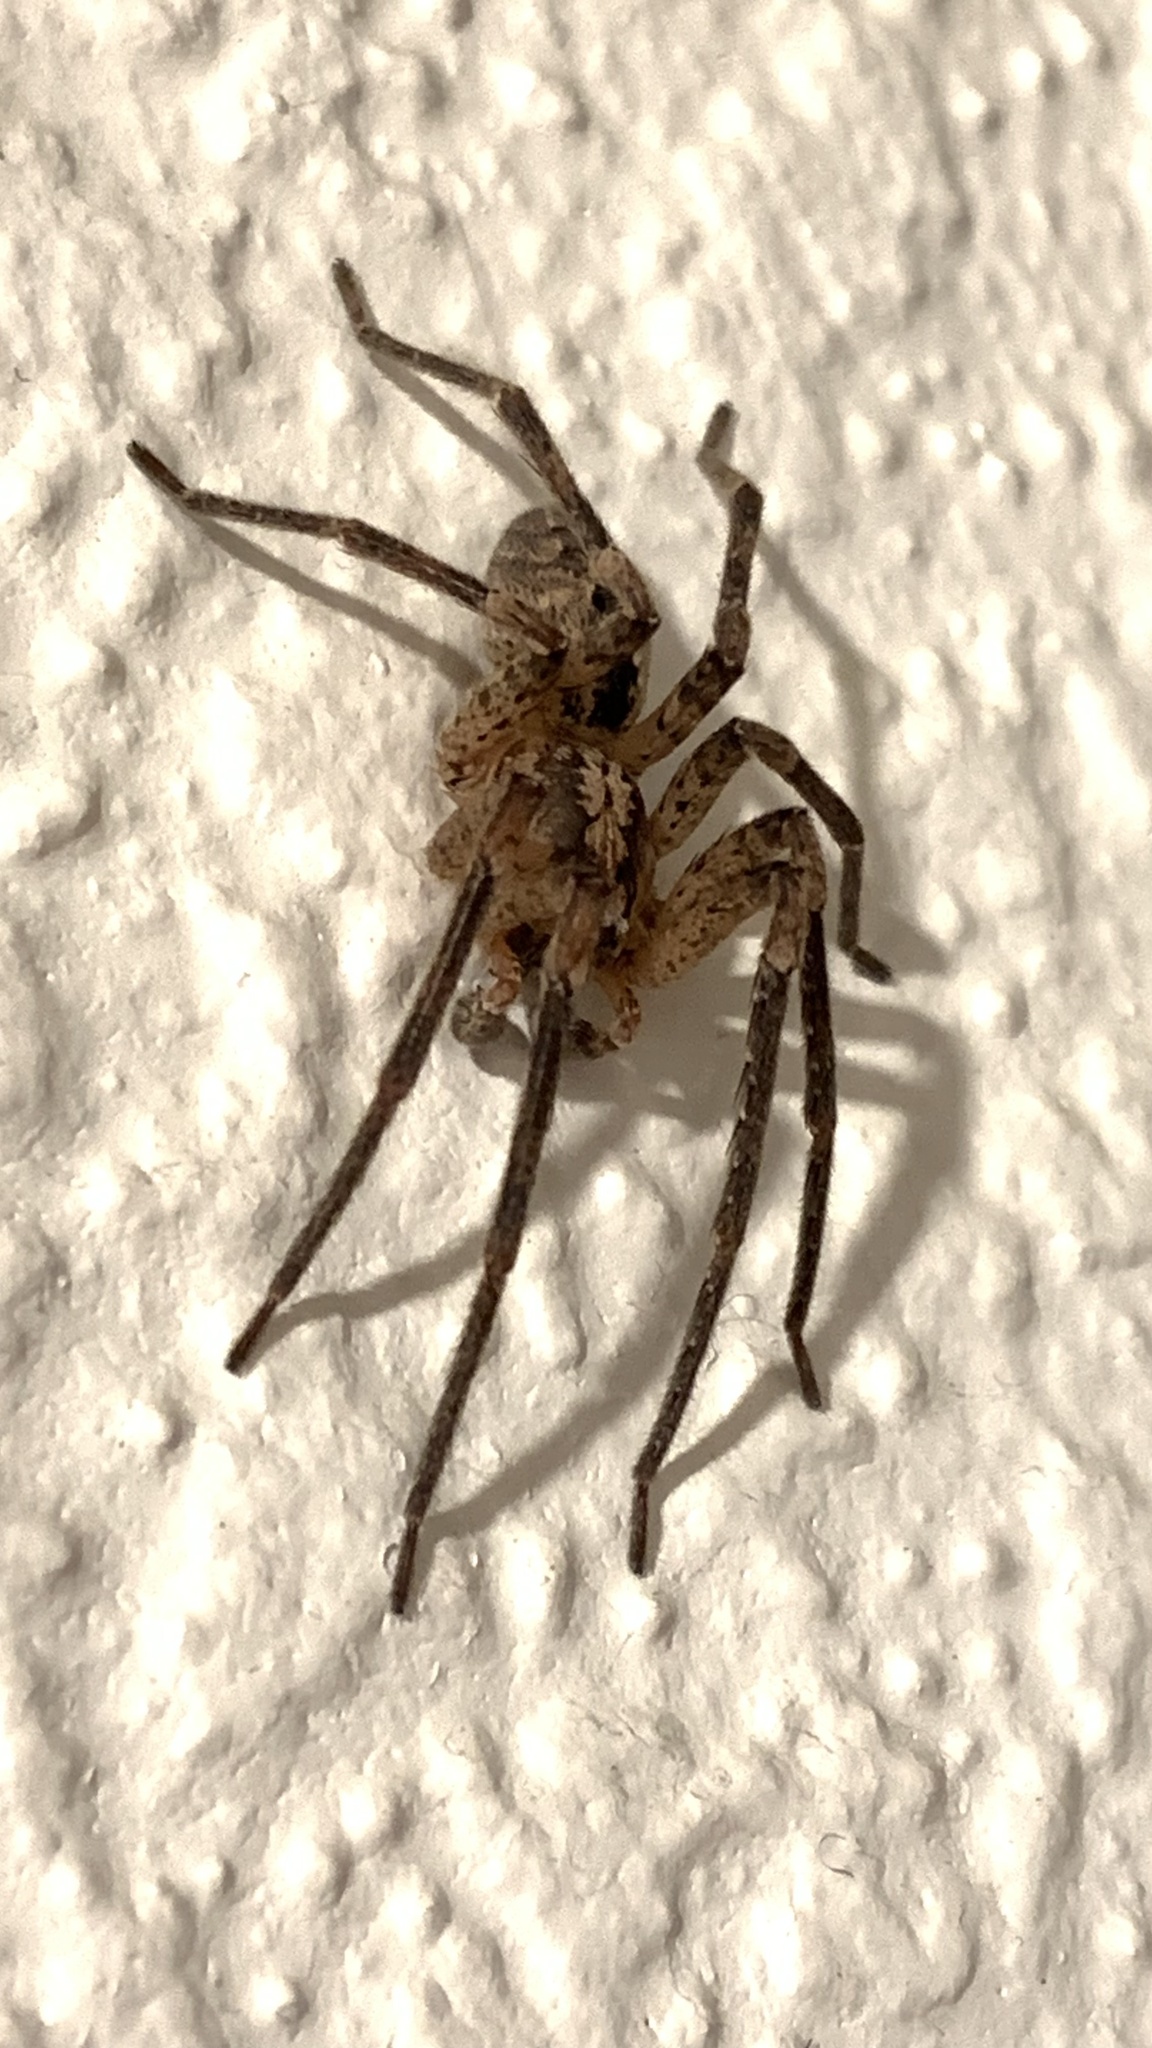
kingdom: Animalia
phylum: Arthropoda
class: Arachnida
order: Araneae
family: Zoropsidae
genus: Zoropsis
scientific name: Zoropsis spinimana
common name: Zoropsid spider
